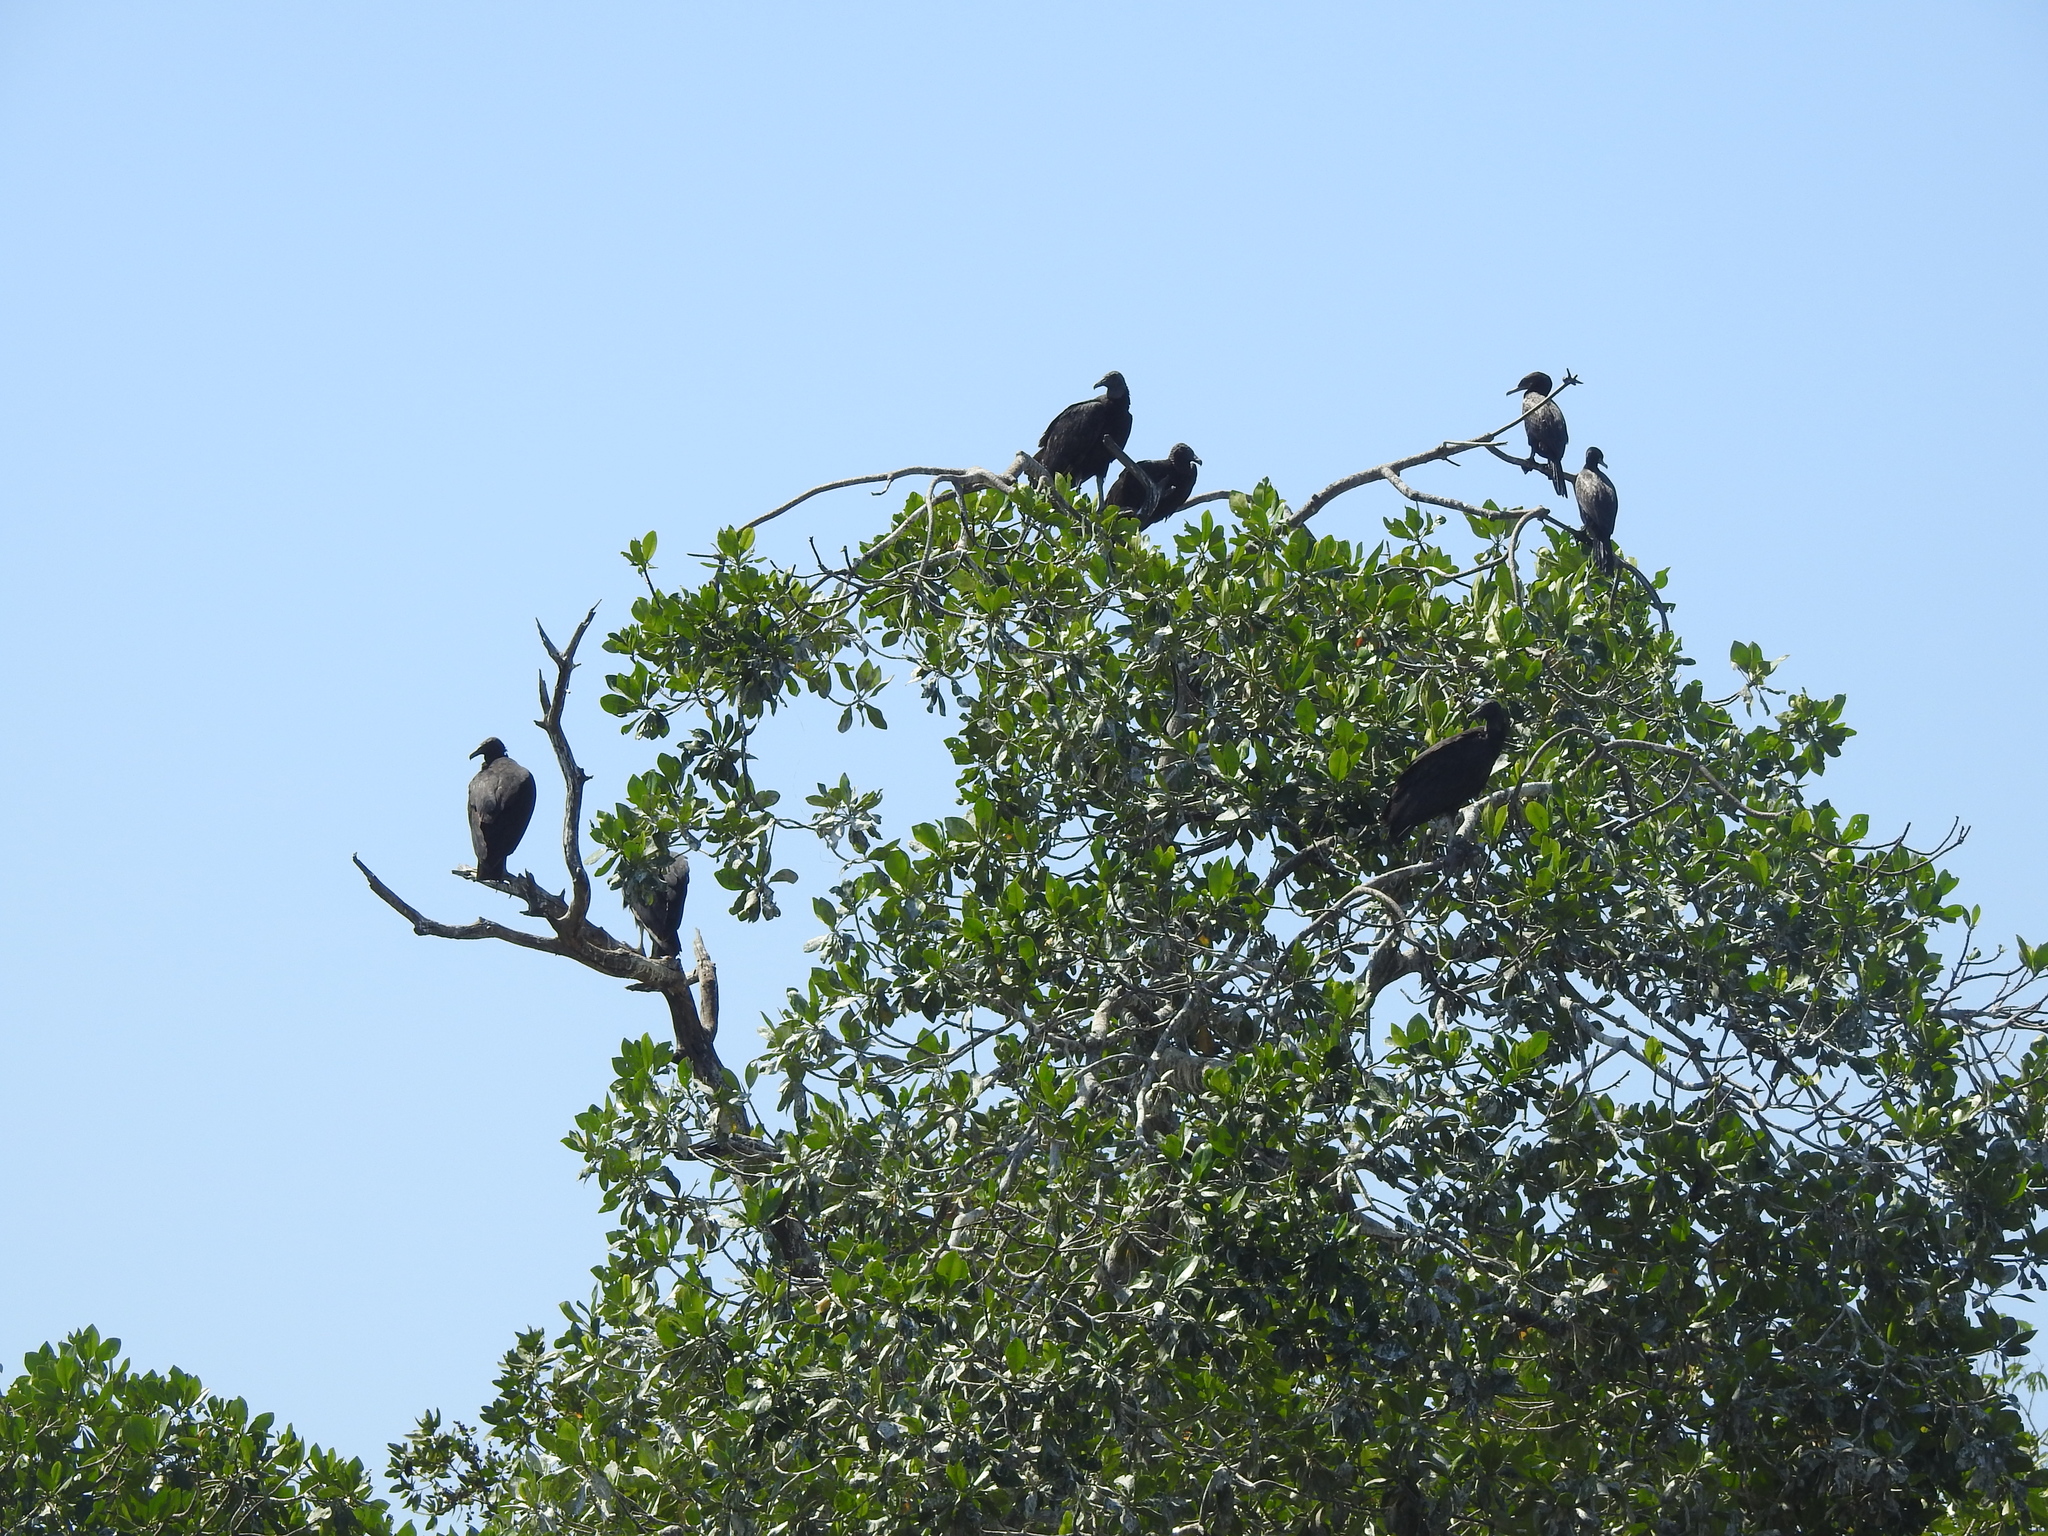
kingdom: Animalia
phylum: Chordata
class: Aves
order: Accipitriformes
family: Cathartidae
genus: Coragyps
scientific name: Coragyps atratus
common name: Black vulture
